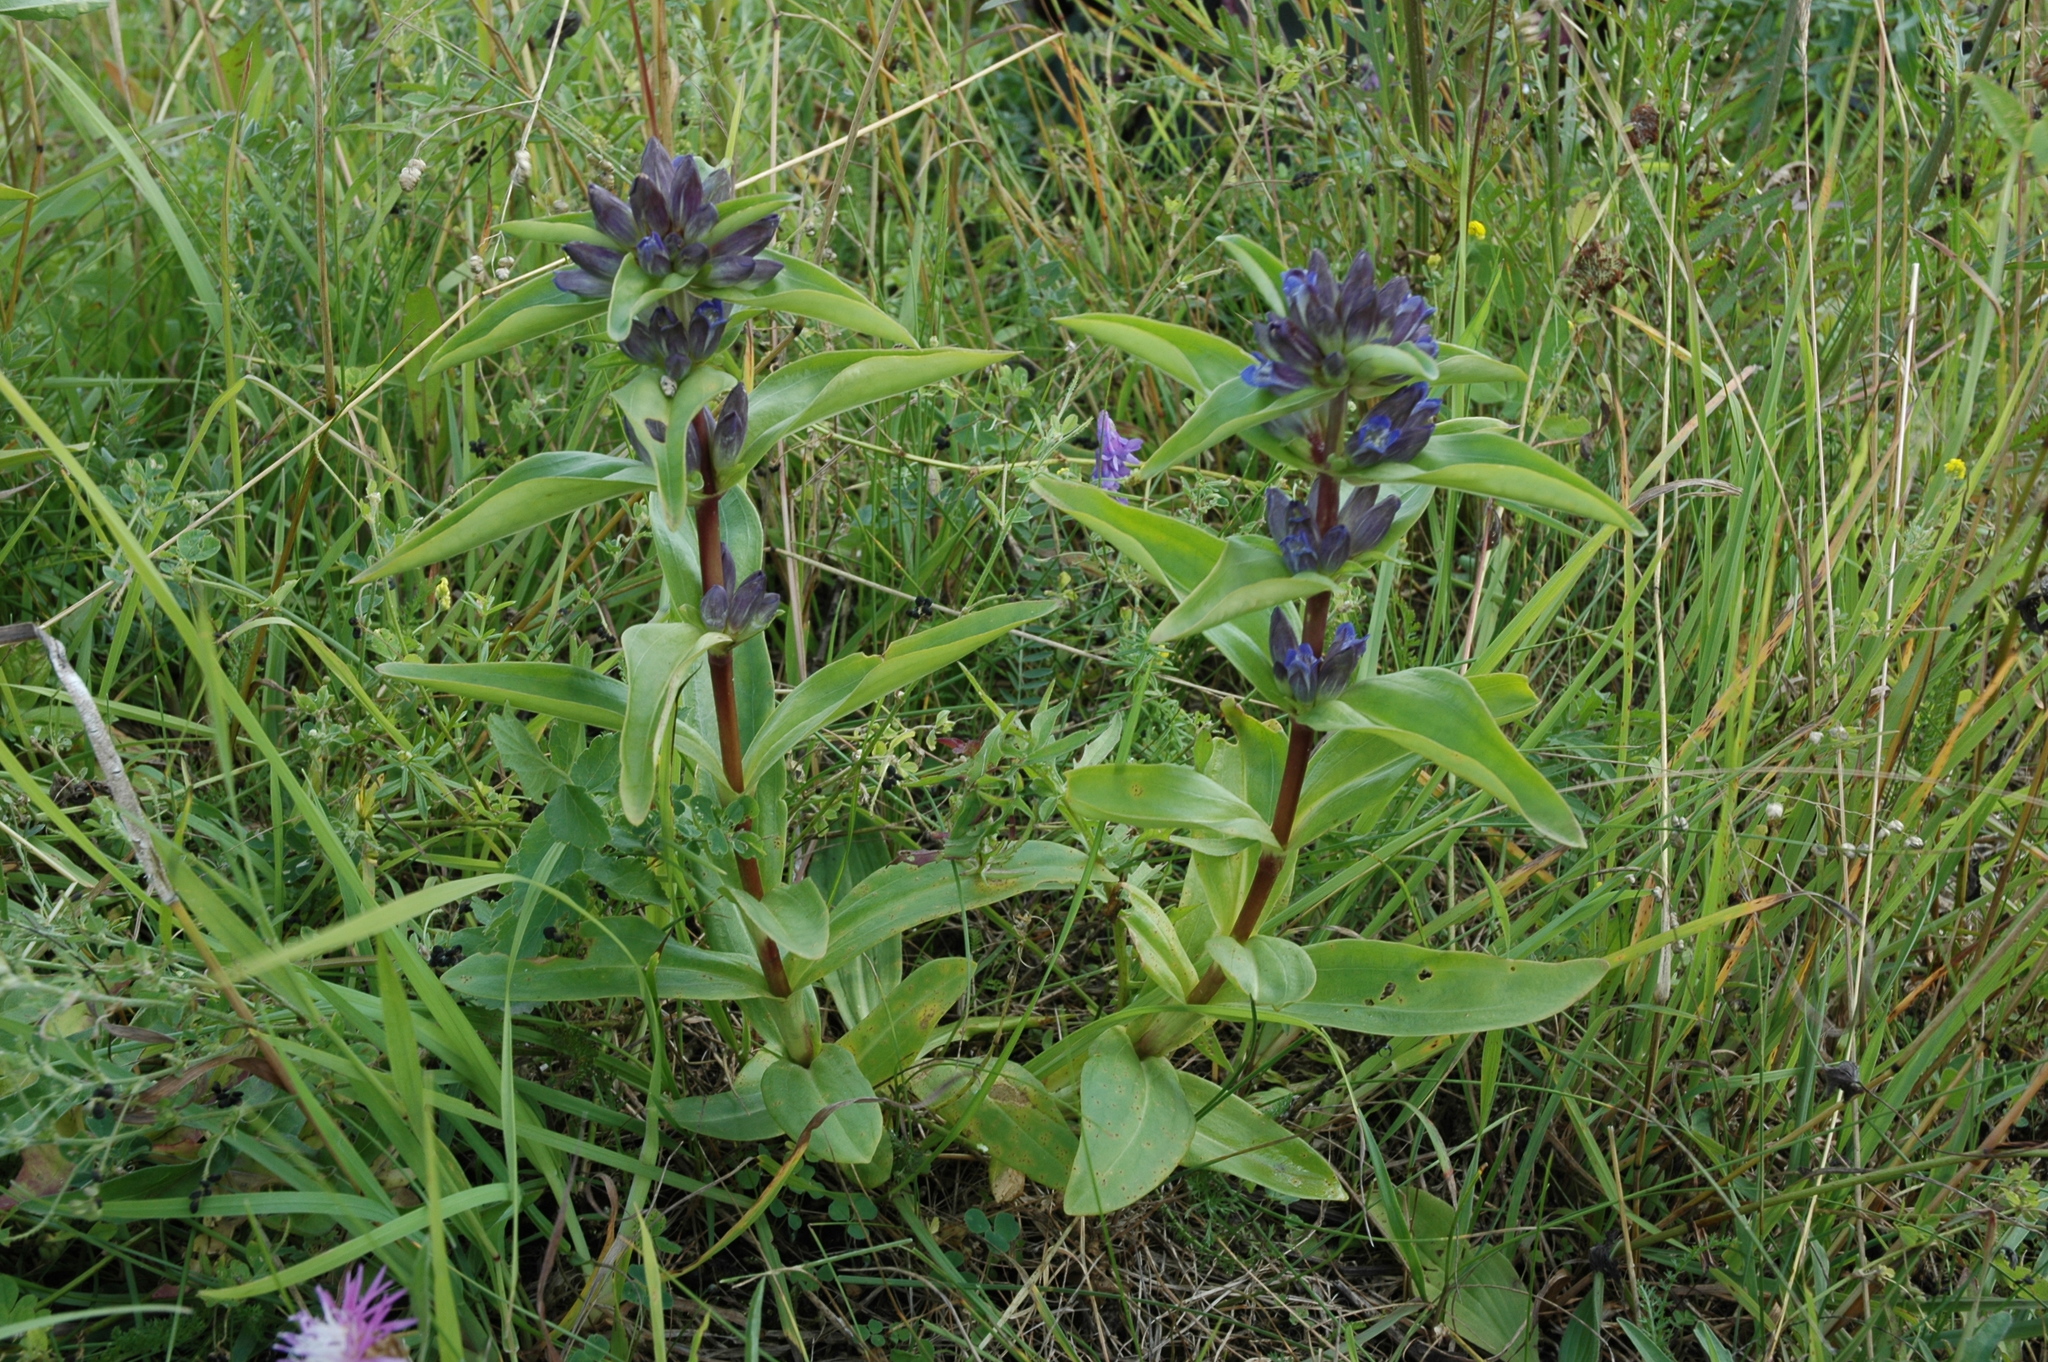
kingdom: Plantae
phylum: Tracheophyta
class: Magnoliopsida
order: Gentianales
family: Gentianaceae
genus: Gentiana
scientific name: Gentiana cruciata
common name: Cross gentian
